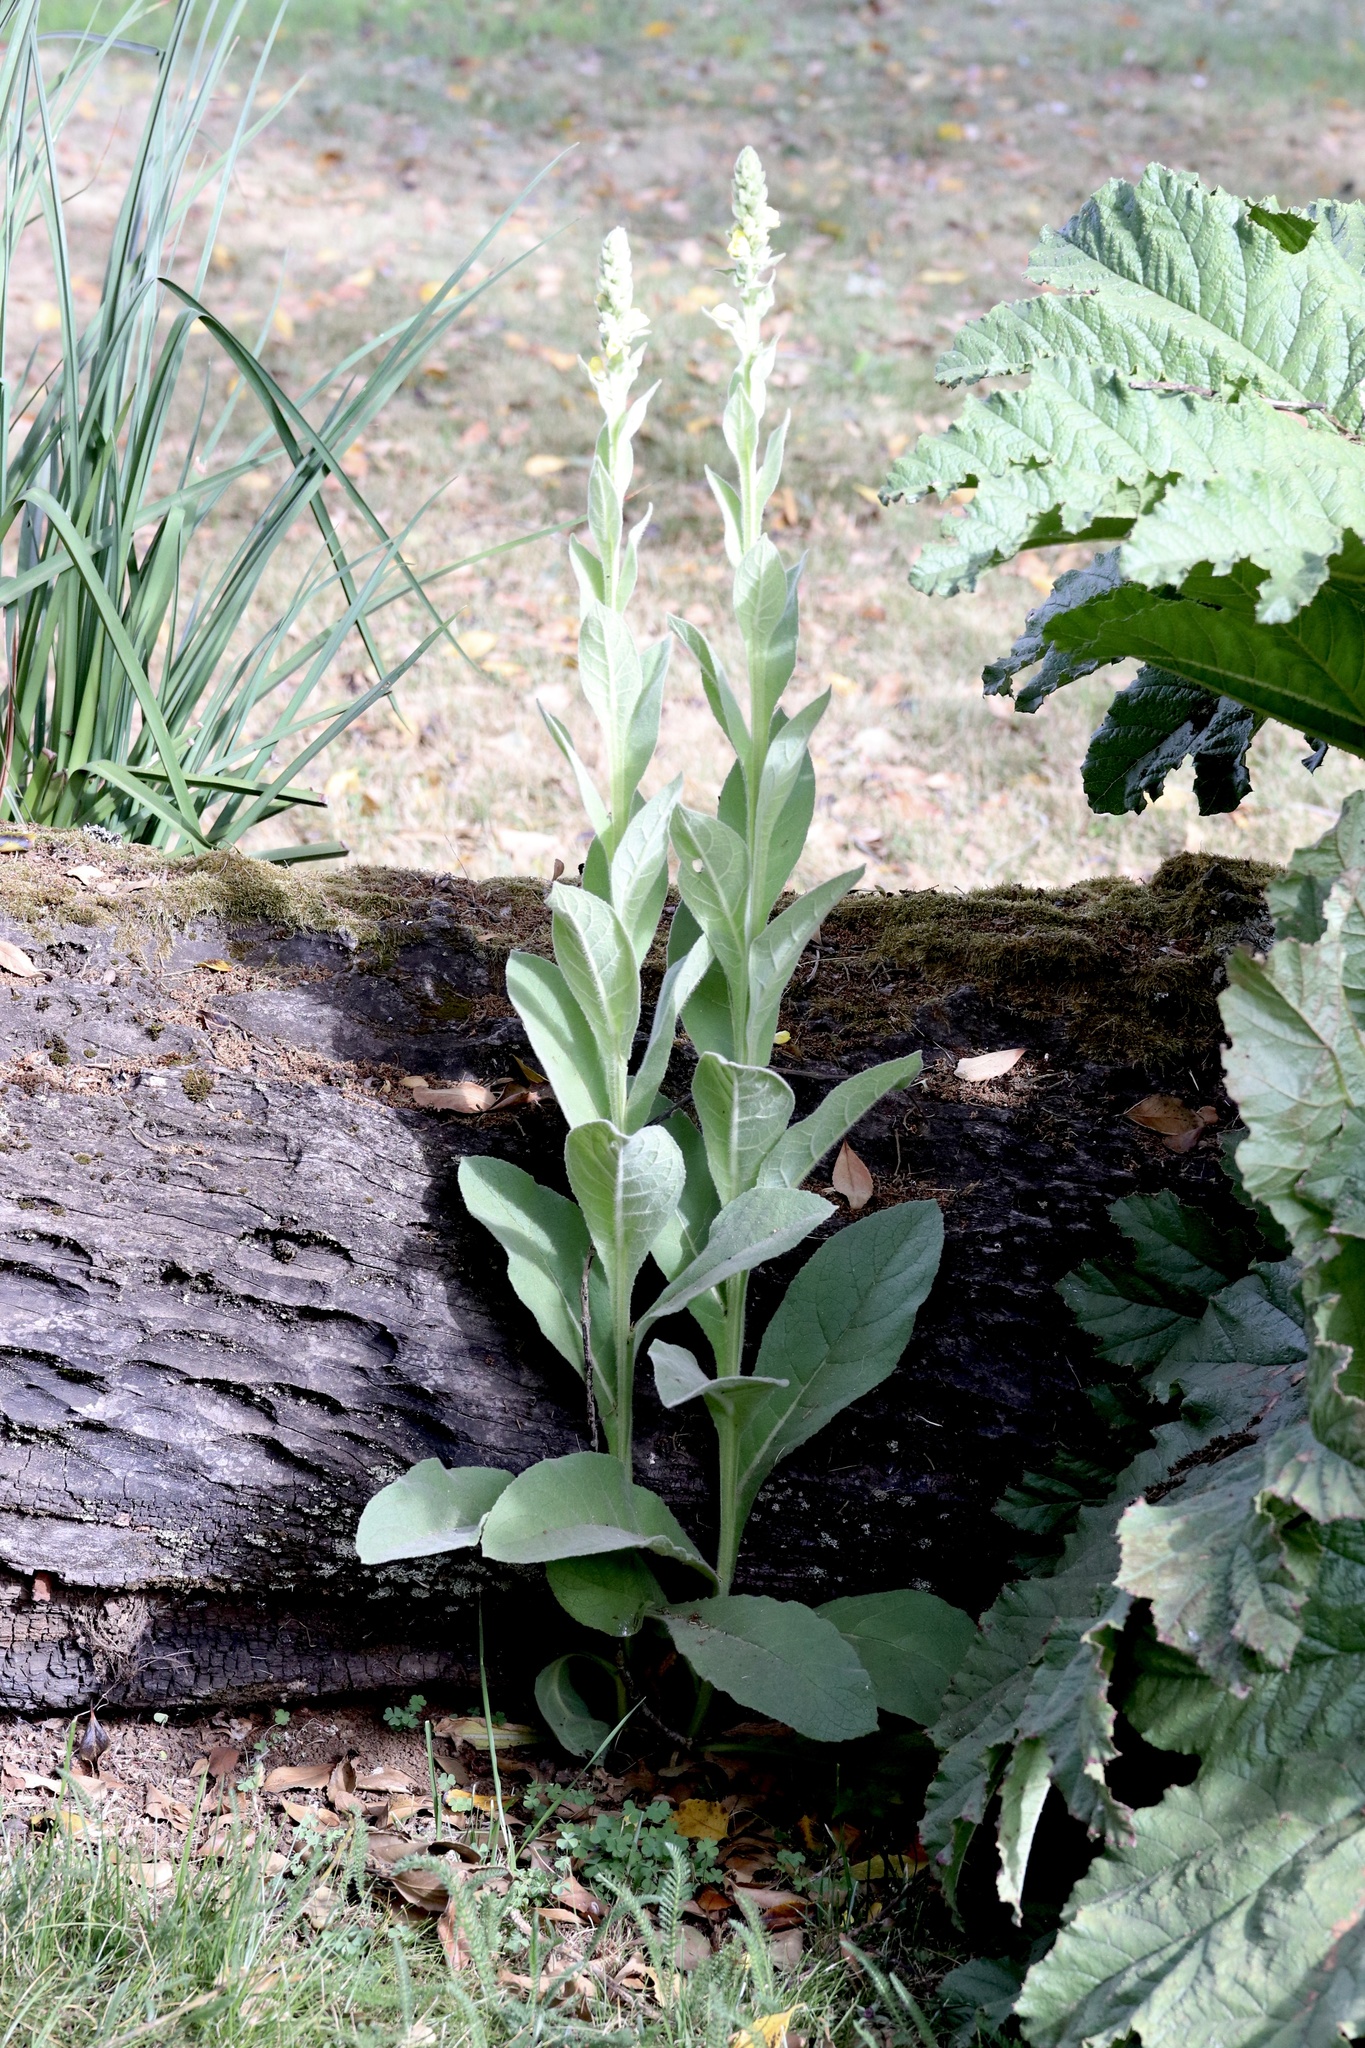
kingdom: Plantae
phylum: Tracheophyta
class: Magnoliopsida
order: Lamiales
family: Scrophulariaceae
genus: Verbascum
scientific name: Verbascum thapsus
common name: Common mullein
